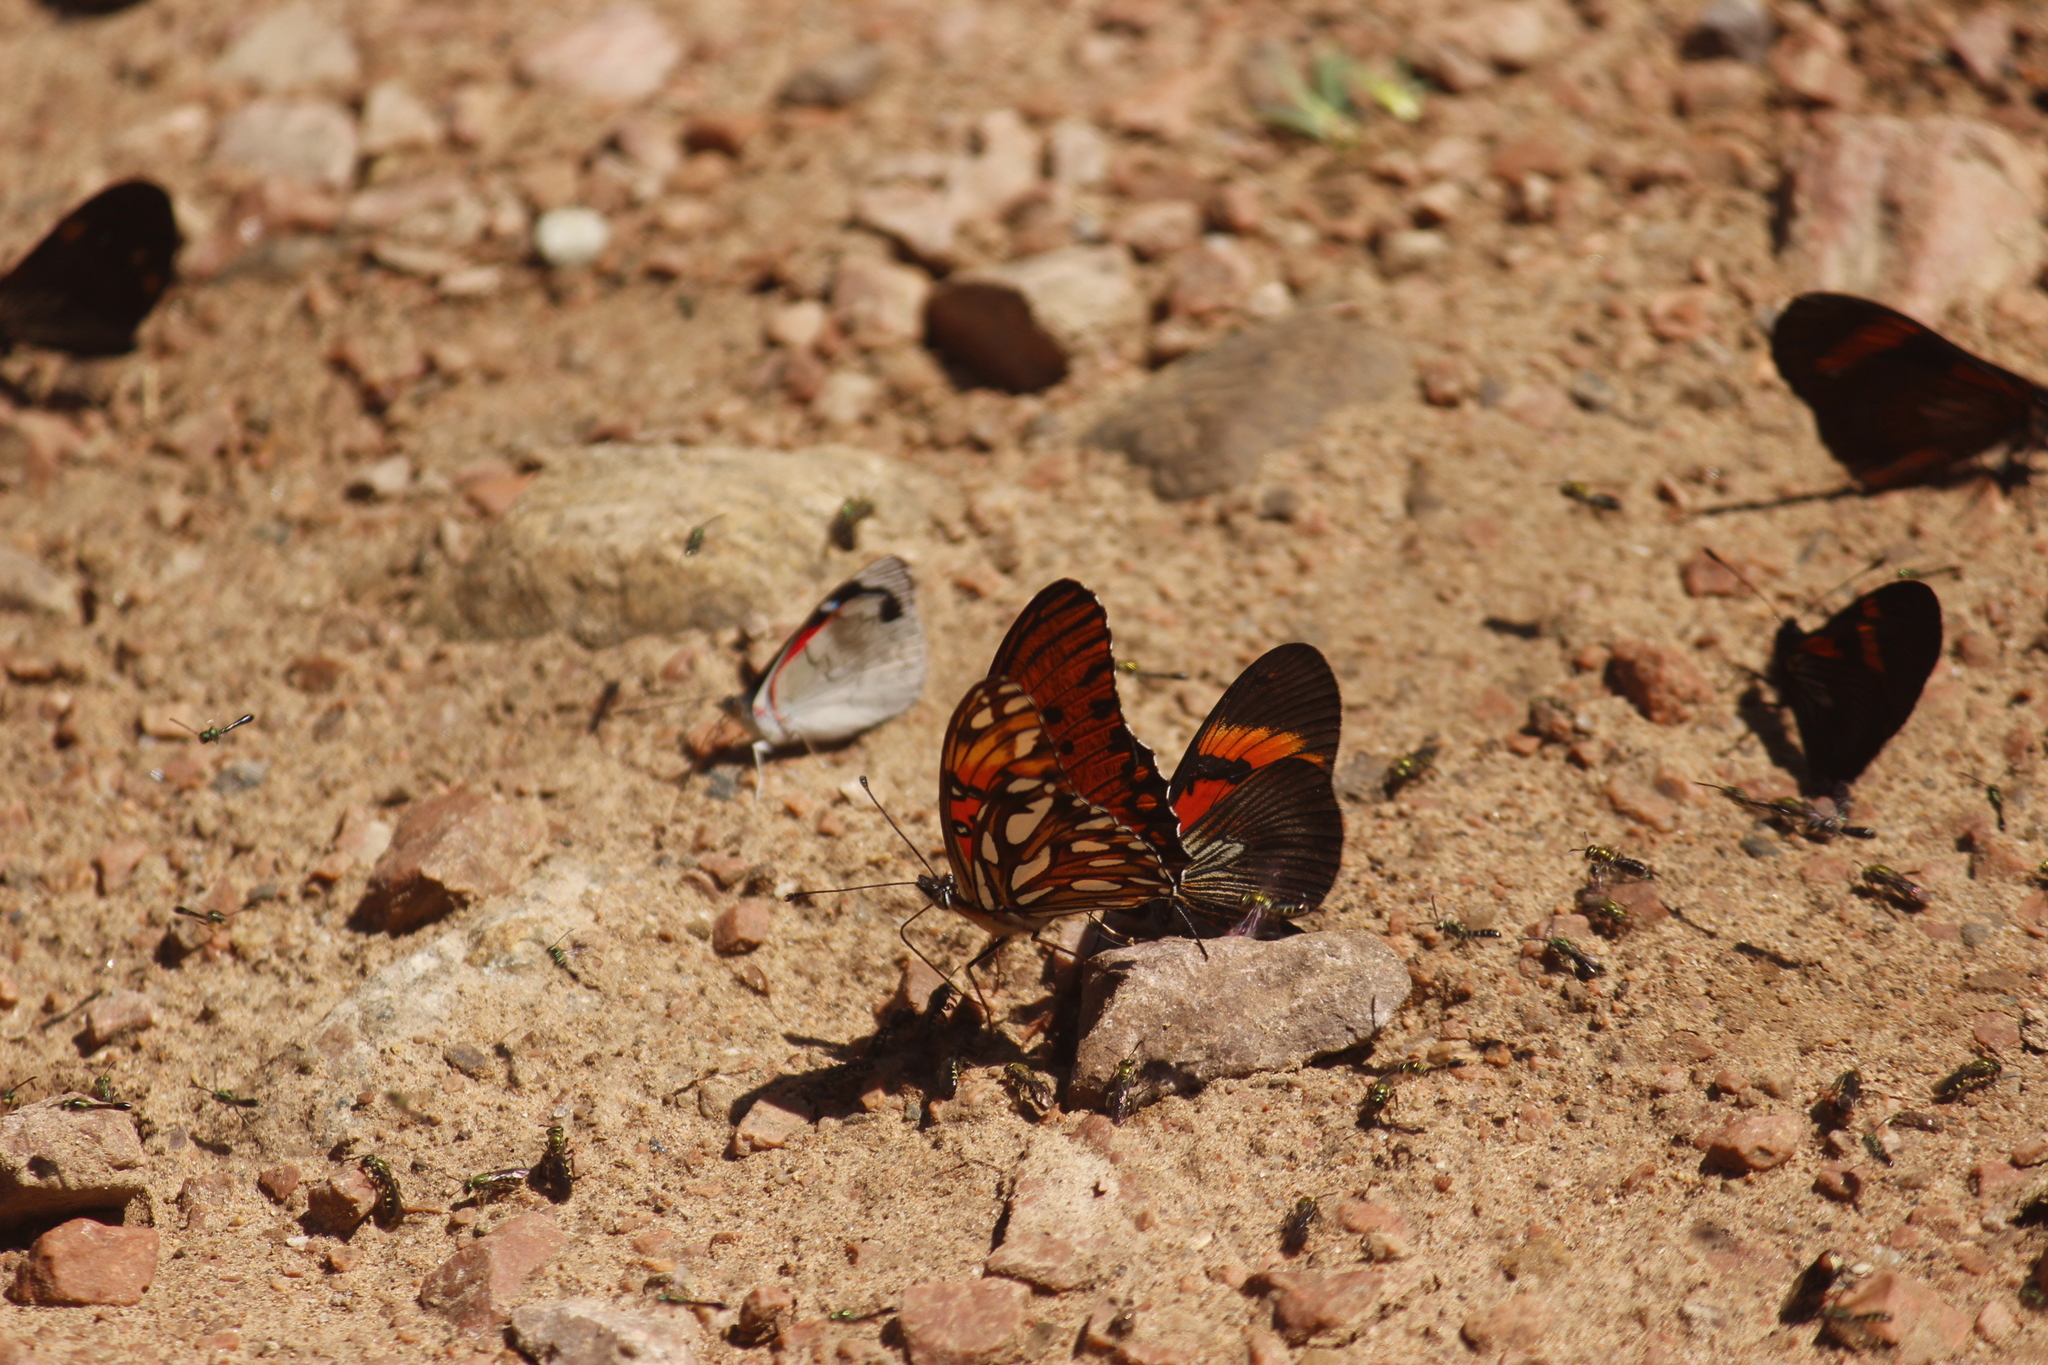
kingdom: Animalia
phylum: Arthropoda
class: Insecta
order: Lepidoptera
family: Nymphalidae
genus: Dione
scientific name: Dione vanillae
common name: Gulf fritillary
